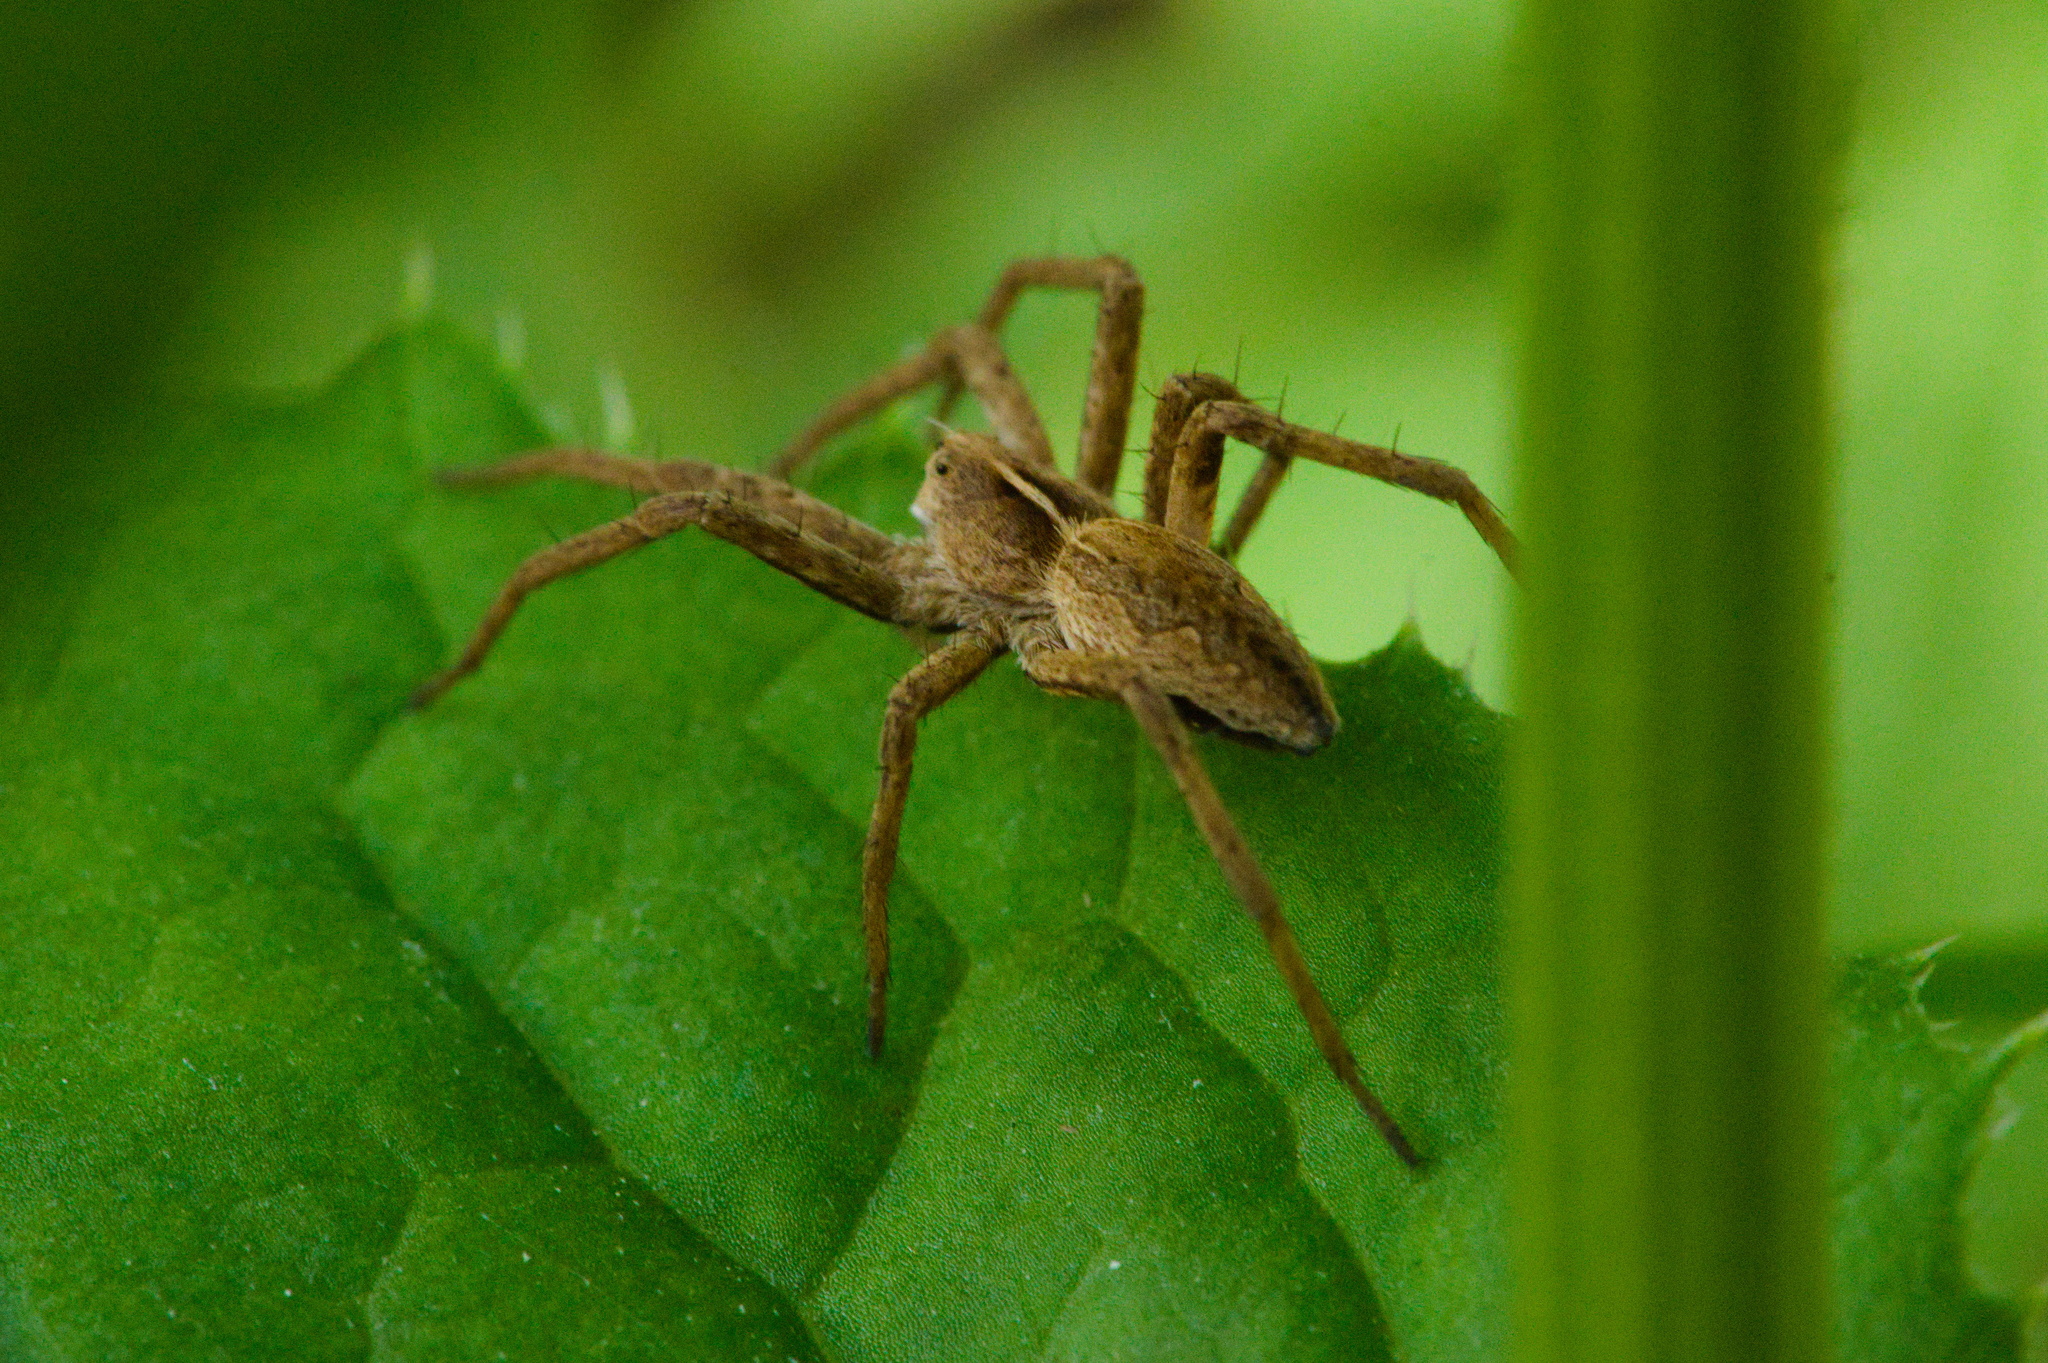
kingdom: Animalia
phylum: Arthropoda
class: Arachnida
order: Araneae
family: Pisauridae
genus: Pisaura
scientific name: Pisaura mirabilis
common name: Tent spider
